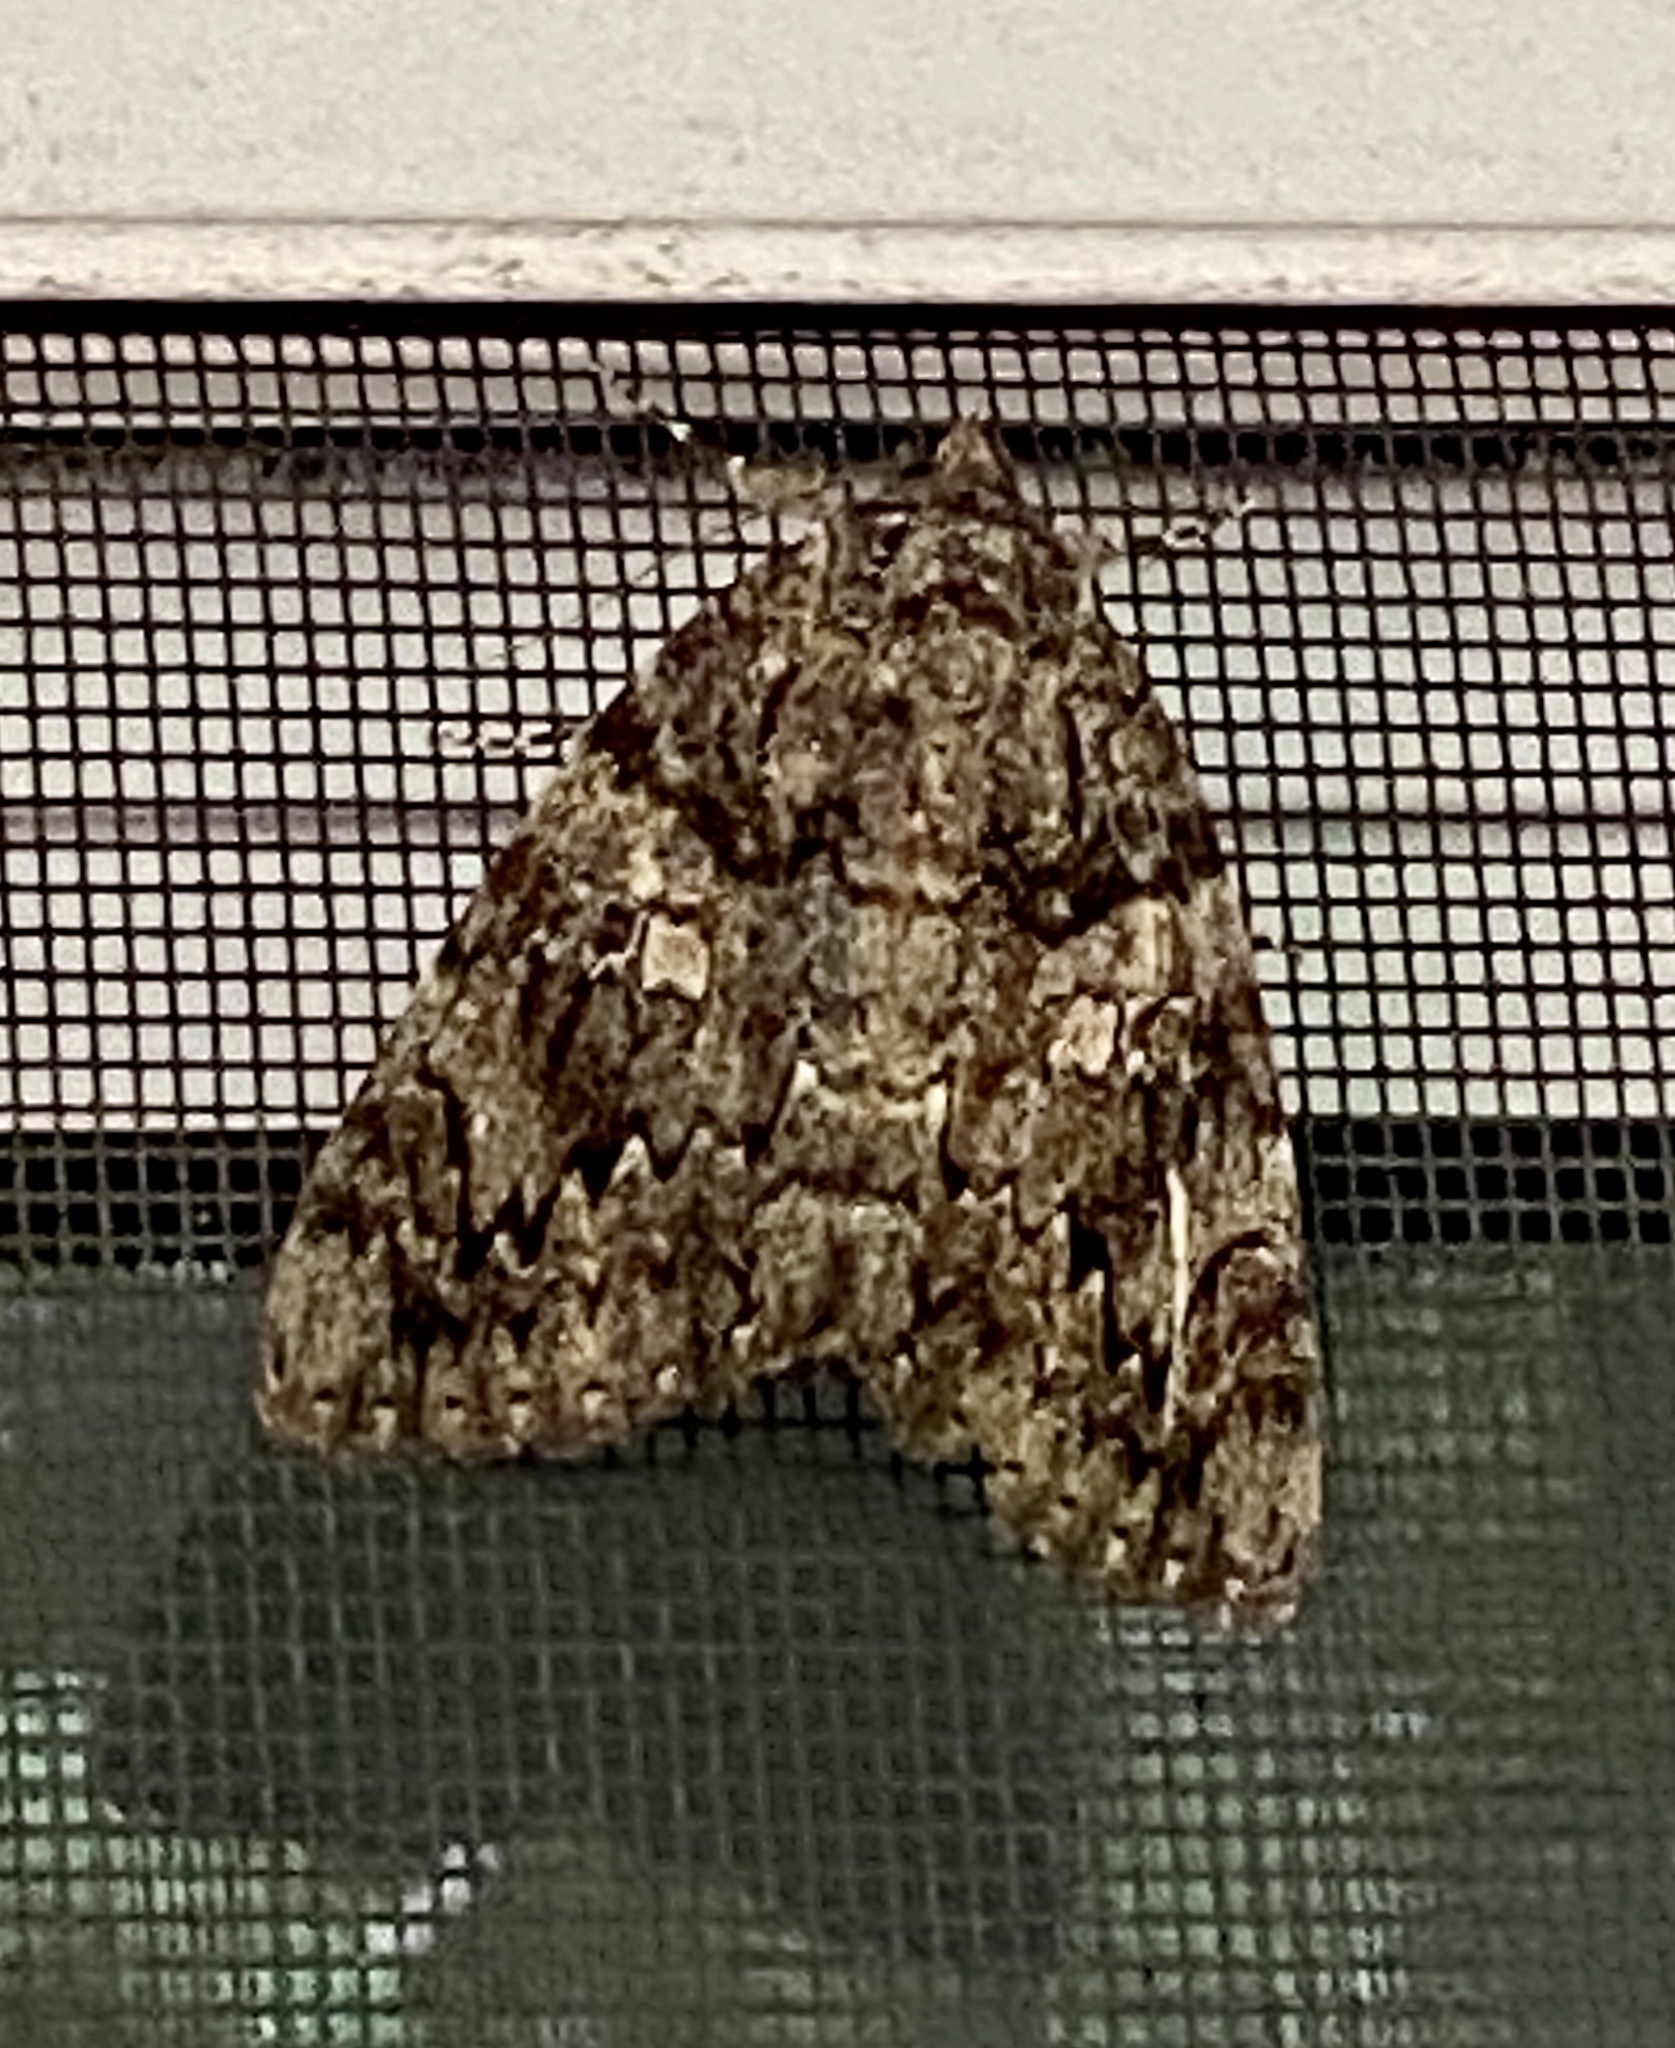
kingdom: Animalia
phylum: Arthropoda
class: Insecta
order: Lepidoptera
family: Erebidae
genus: Catocala
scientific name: Catocala ilia
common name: Ilia underwing
